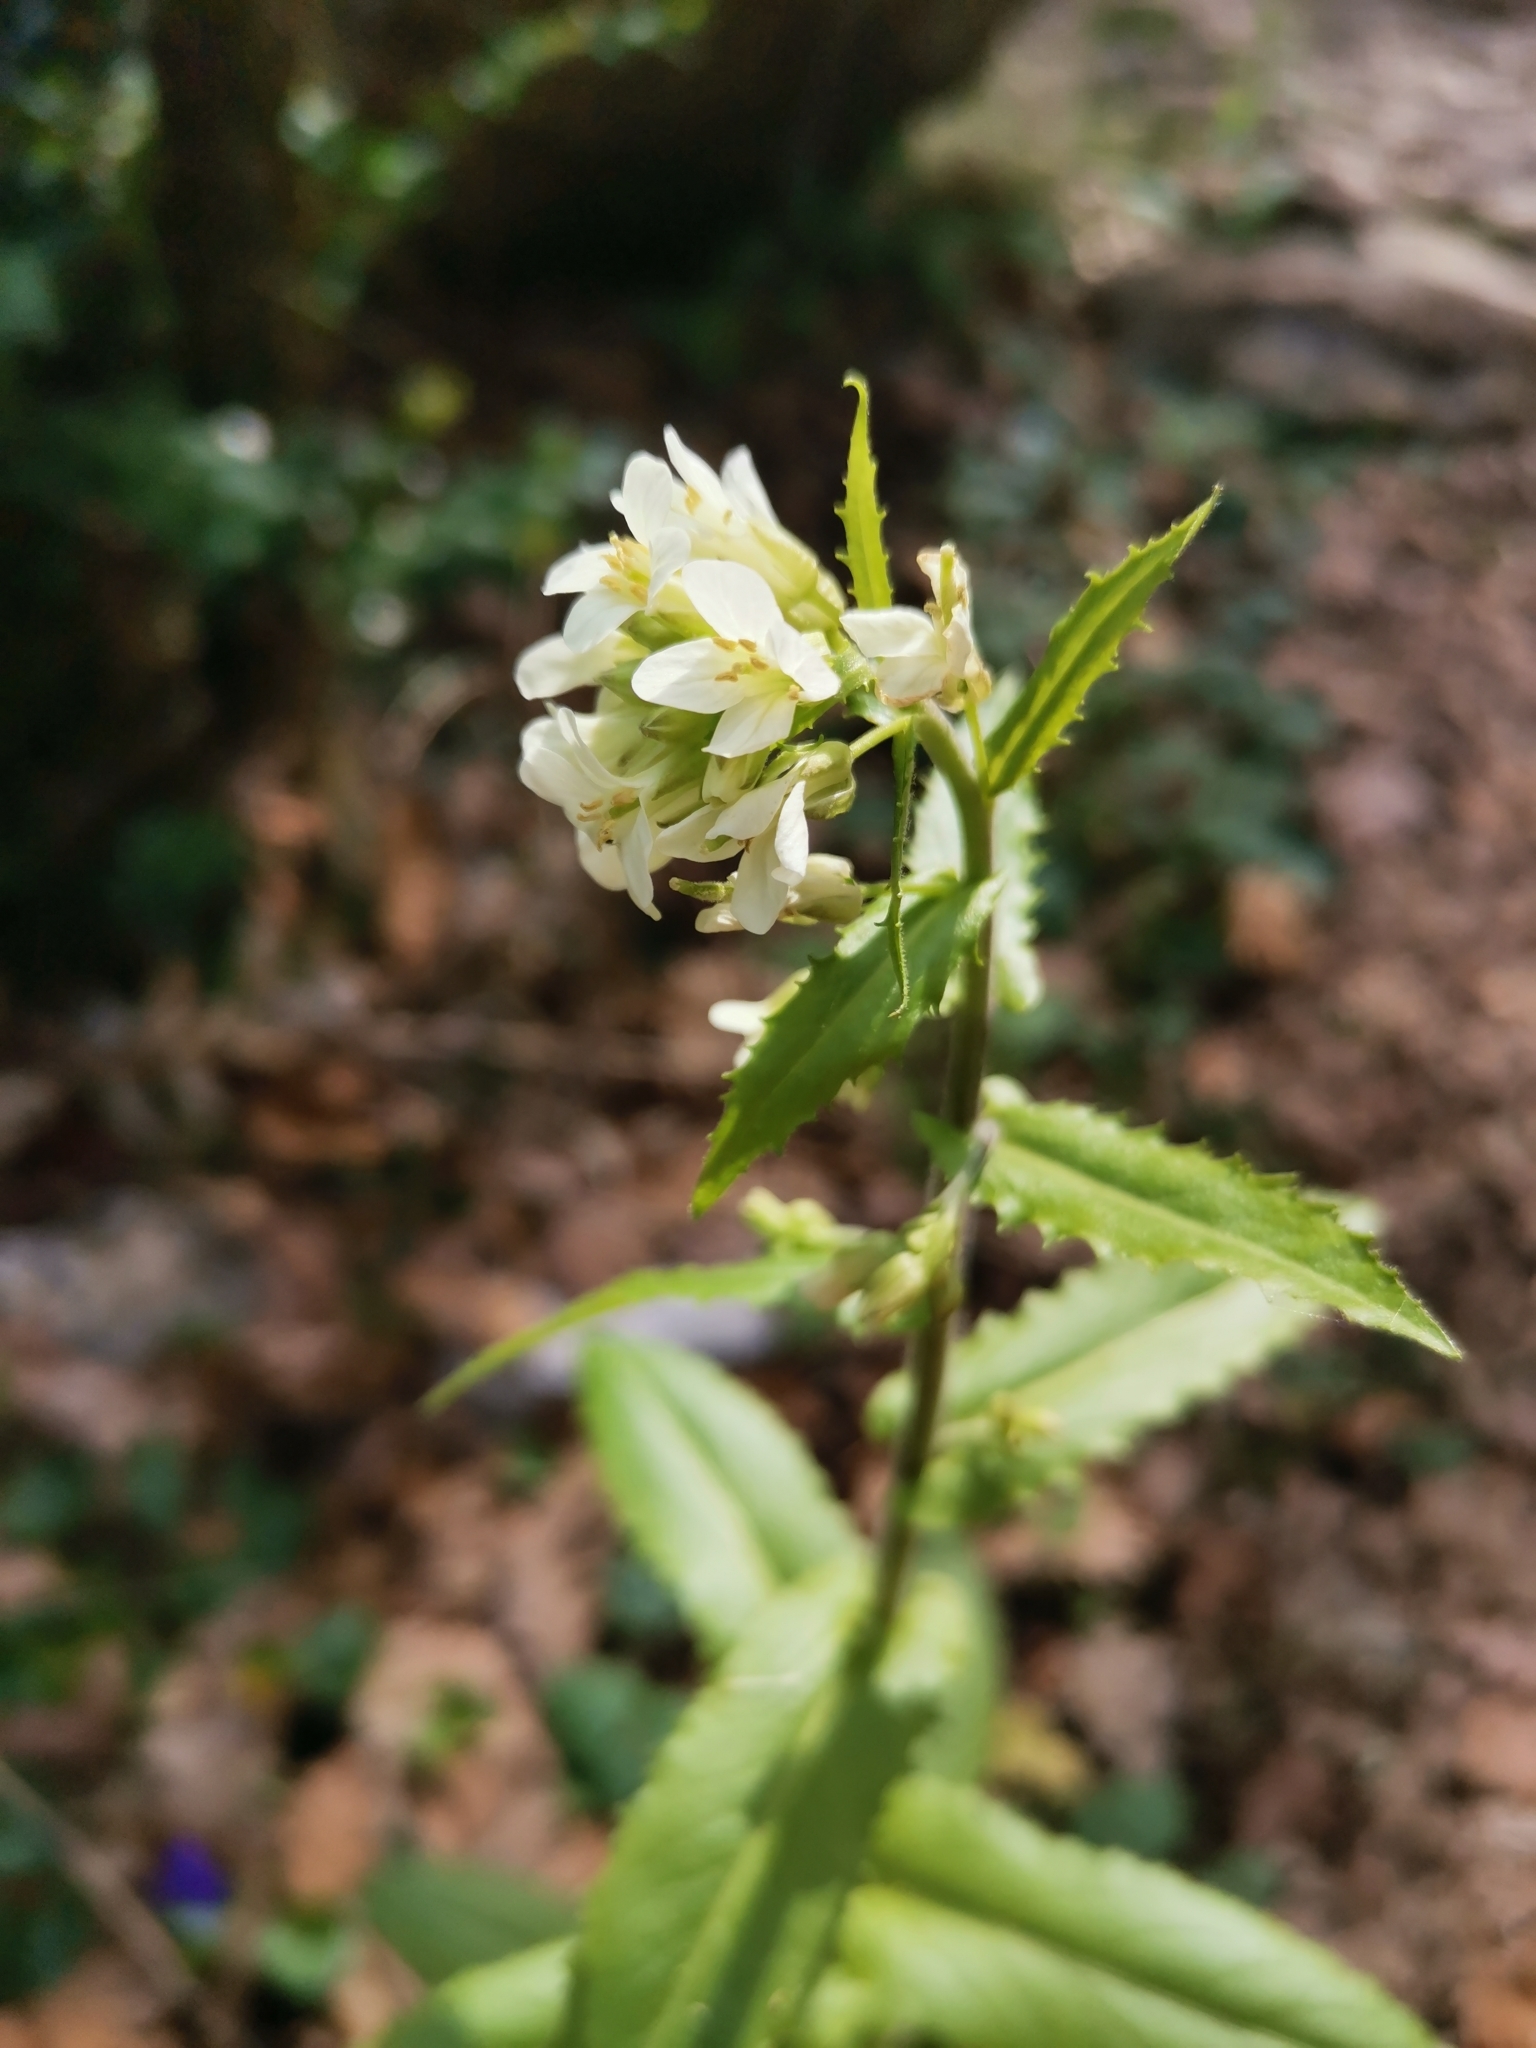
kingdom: Plantae
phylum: Tracheophyta
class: Magnoliopsida
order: Brassicales
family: Brassicaceae
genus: Pseudoturritis
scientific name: Pseudoturritis turrita
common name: Tower cress
